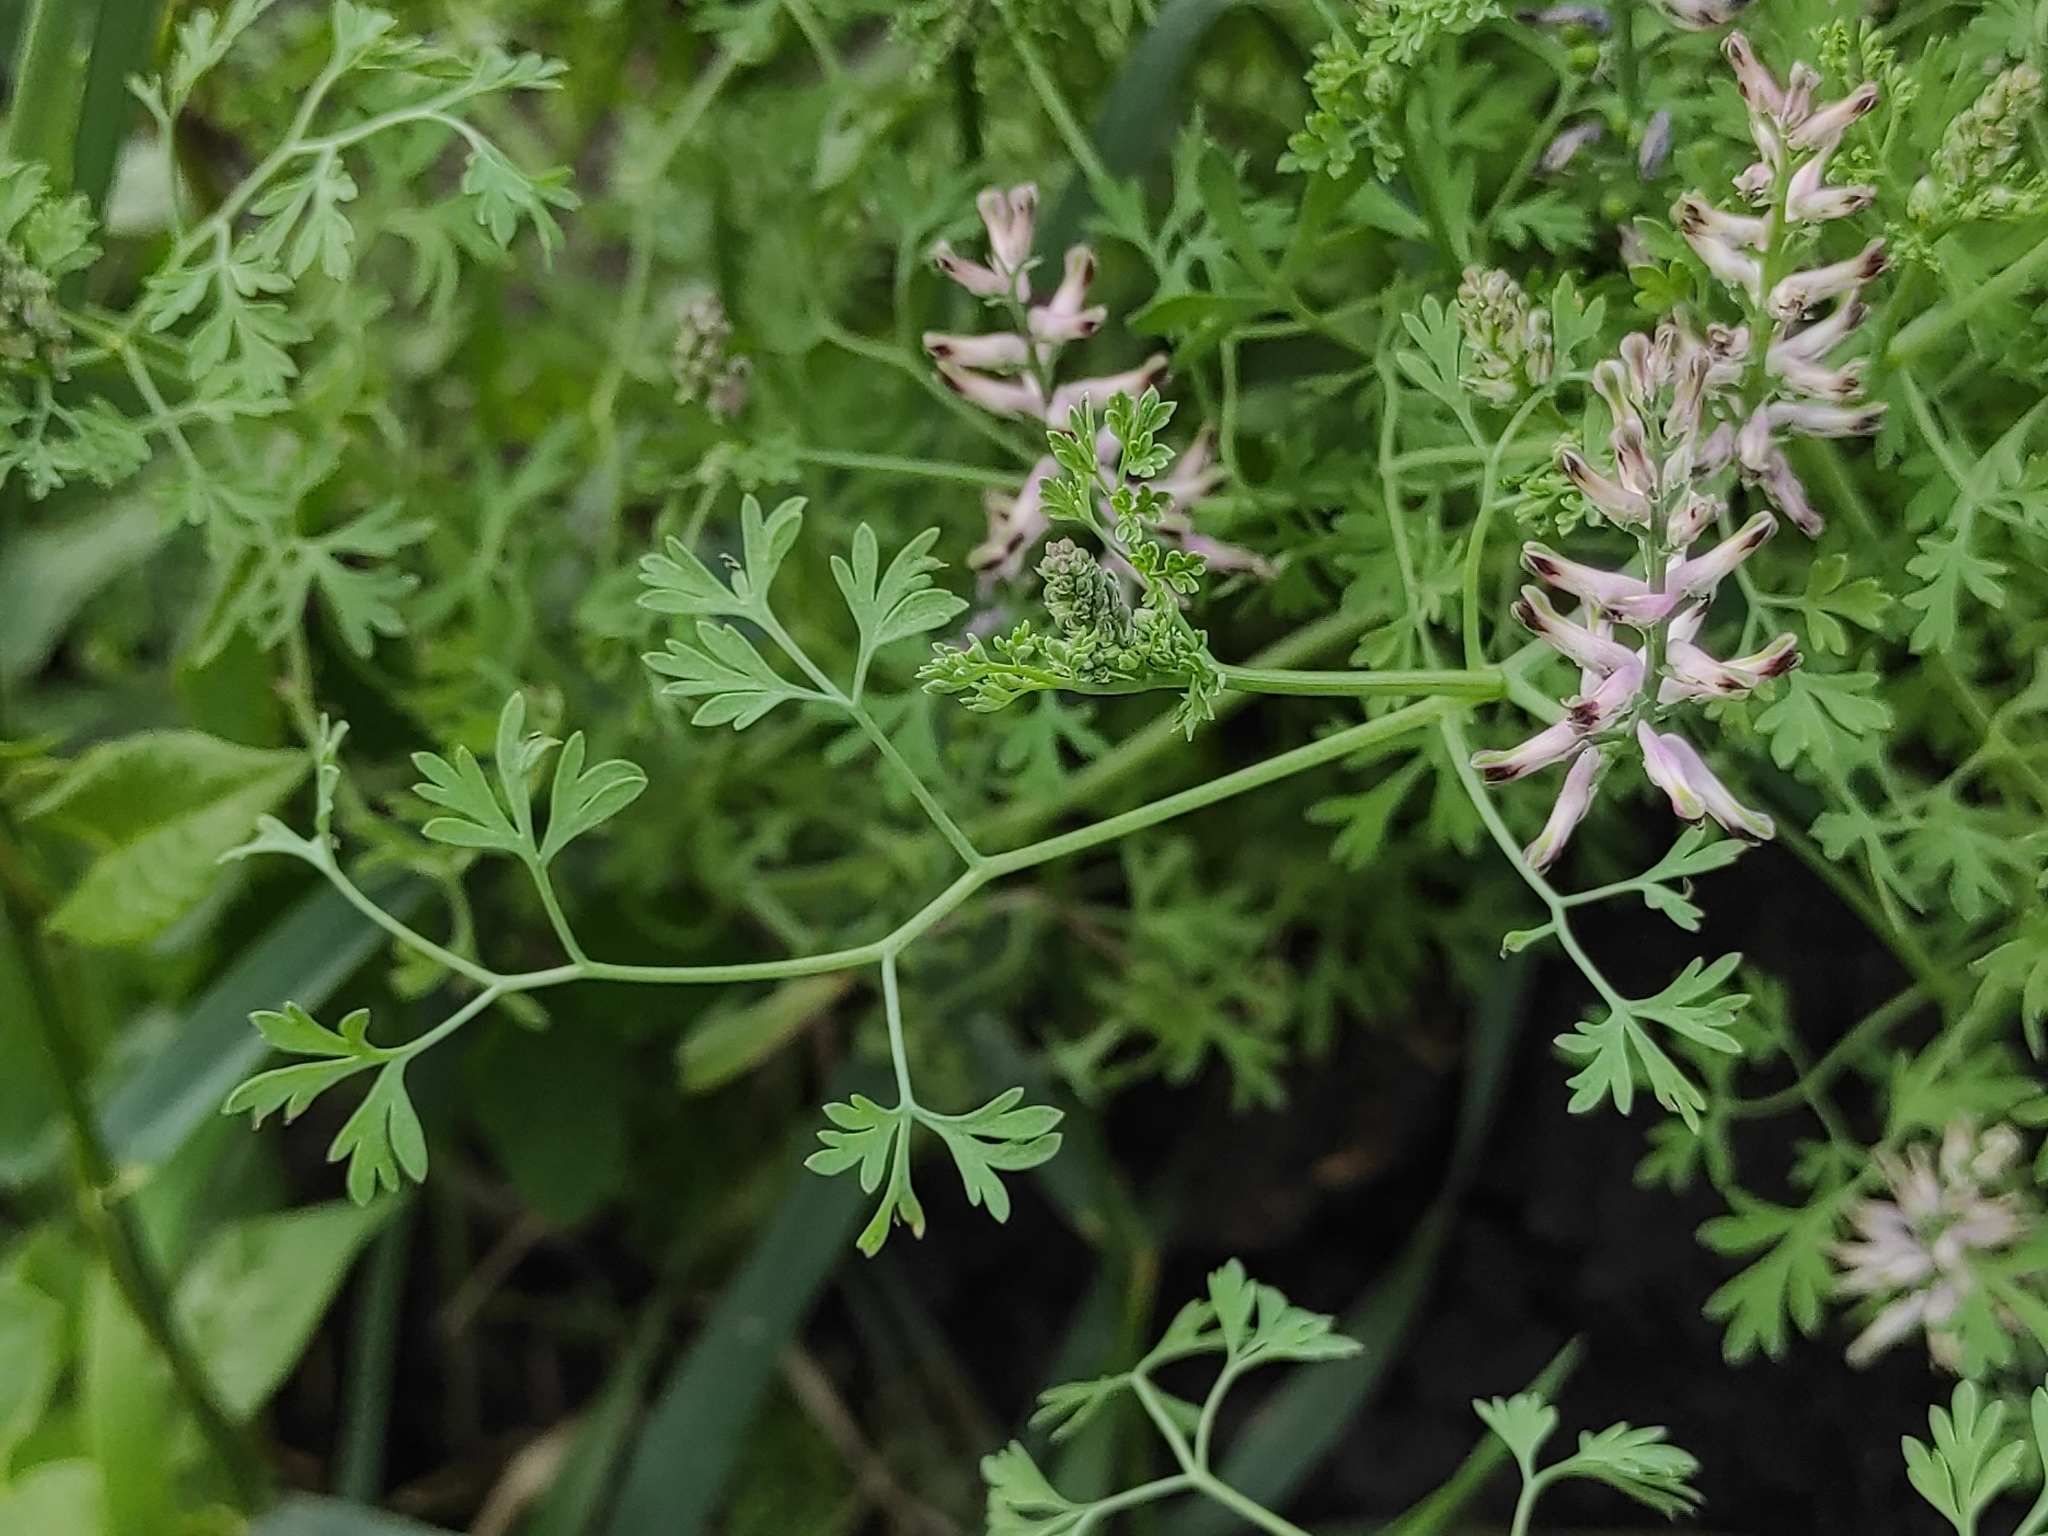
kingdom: Plantae
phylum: Tracheophyta
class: Magnoliopsida
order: Ranunculales
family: Papaveraceae
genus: Fumaria
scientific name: Fumaria officinalis
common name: Common fumitory
